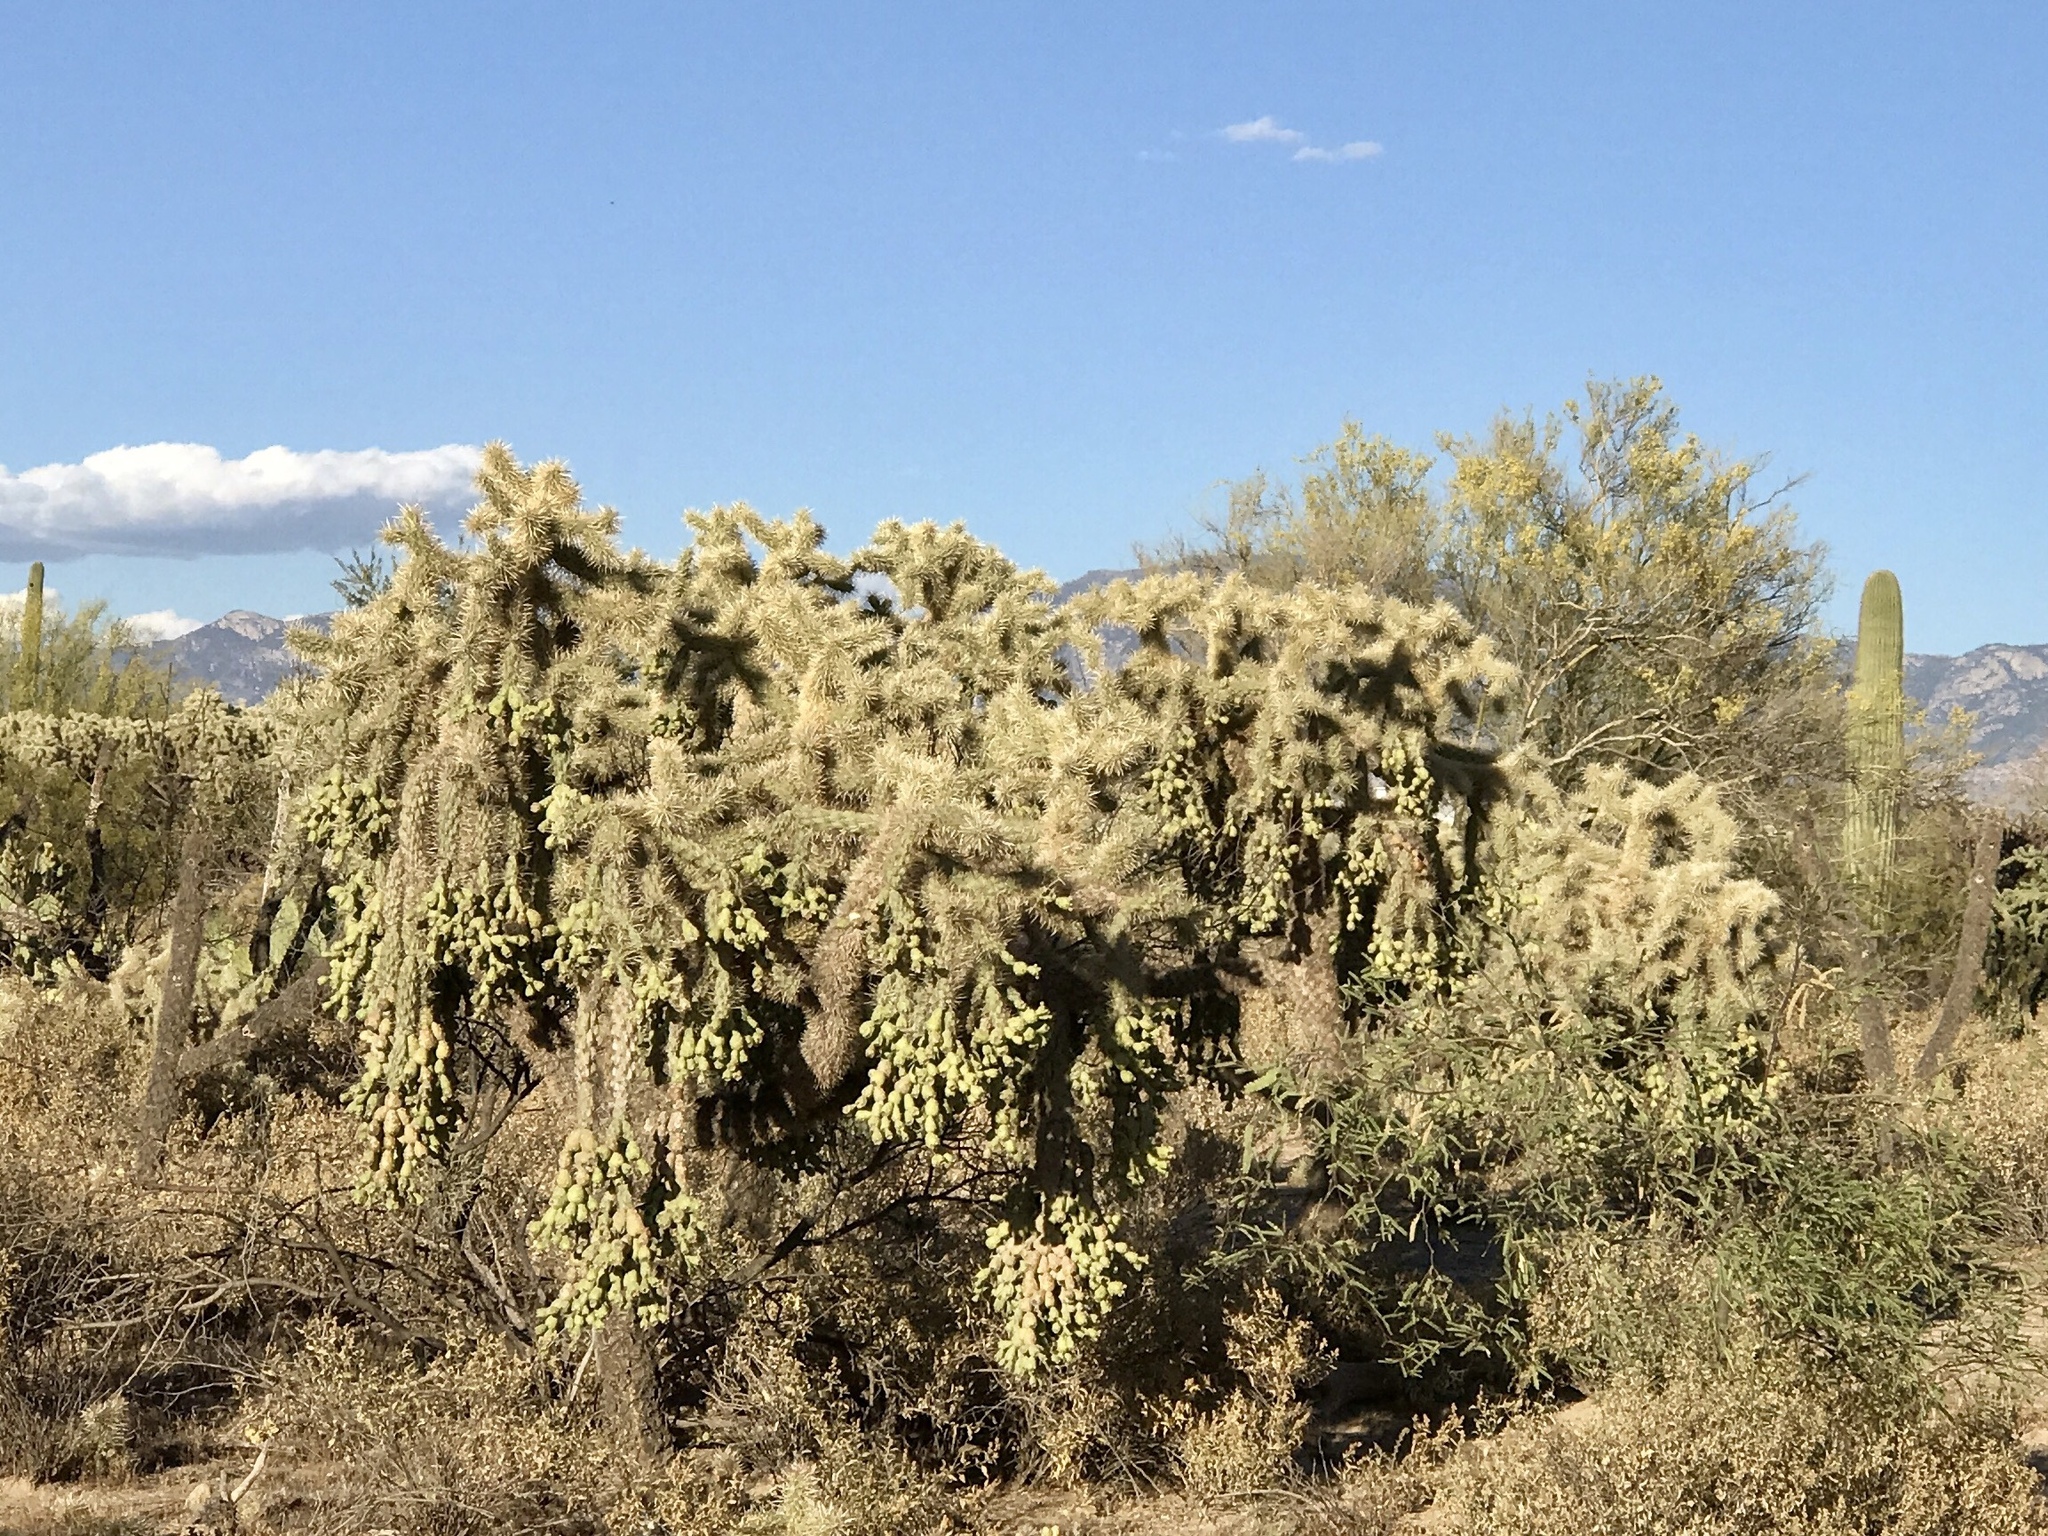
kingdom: Plantae
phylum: Tracheophyta
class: Magnoliopsida
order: Caryophyllales
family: Cactaceae
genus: Cylindropuntia
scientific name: Cylindropuntia fulgida
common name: Jumping cholla
